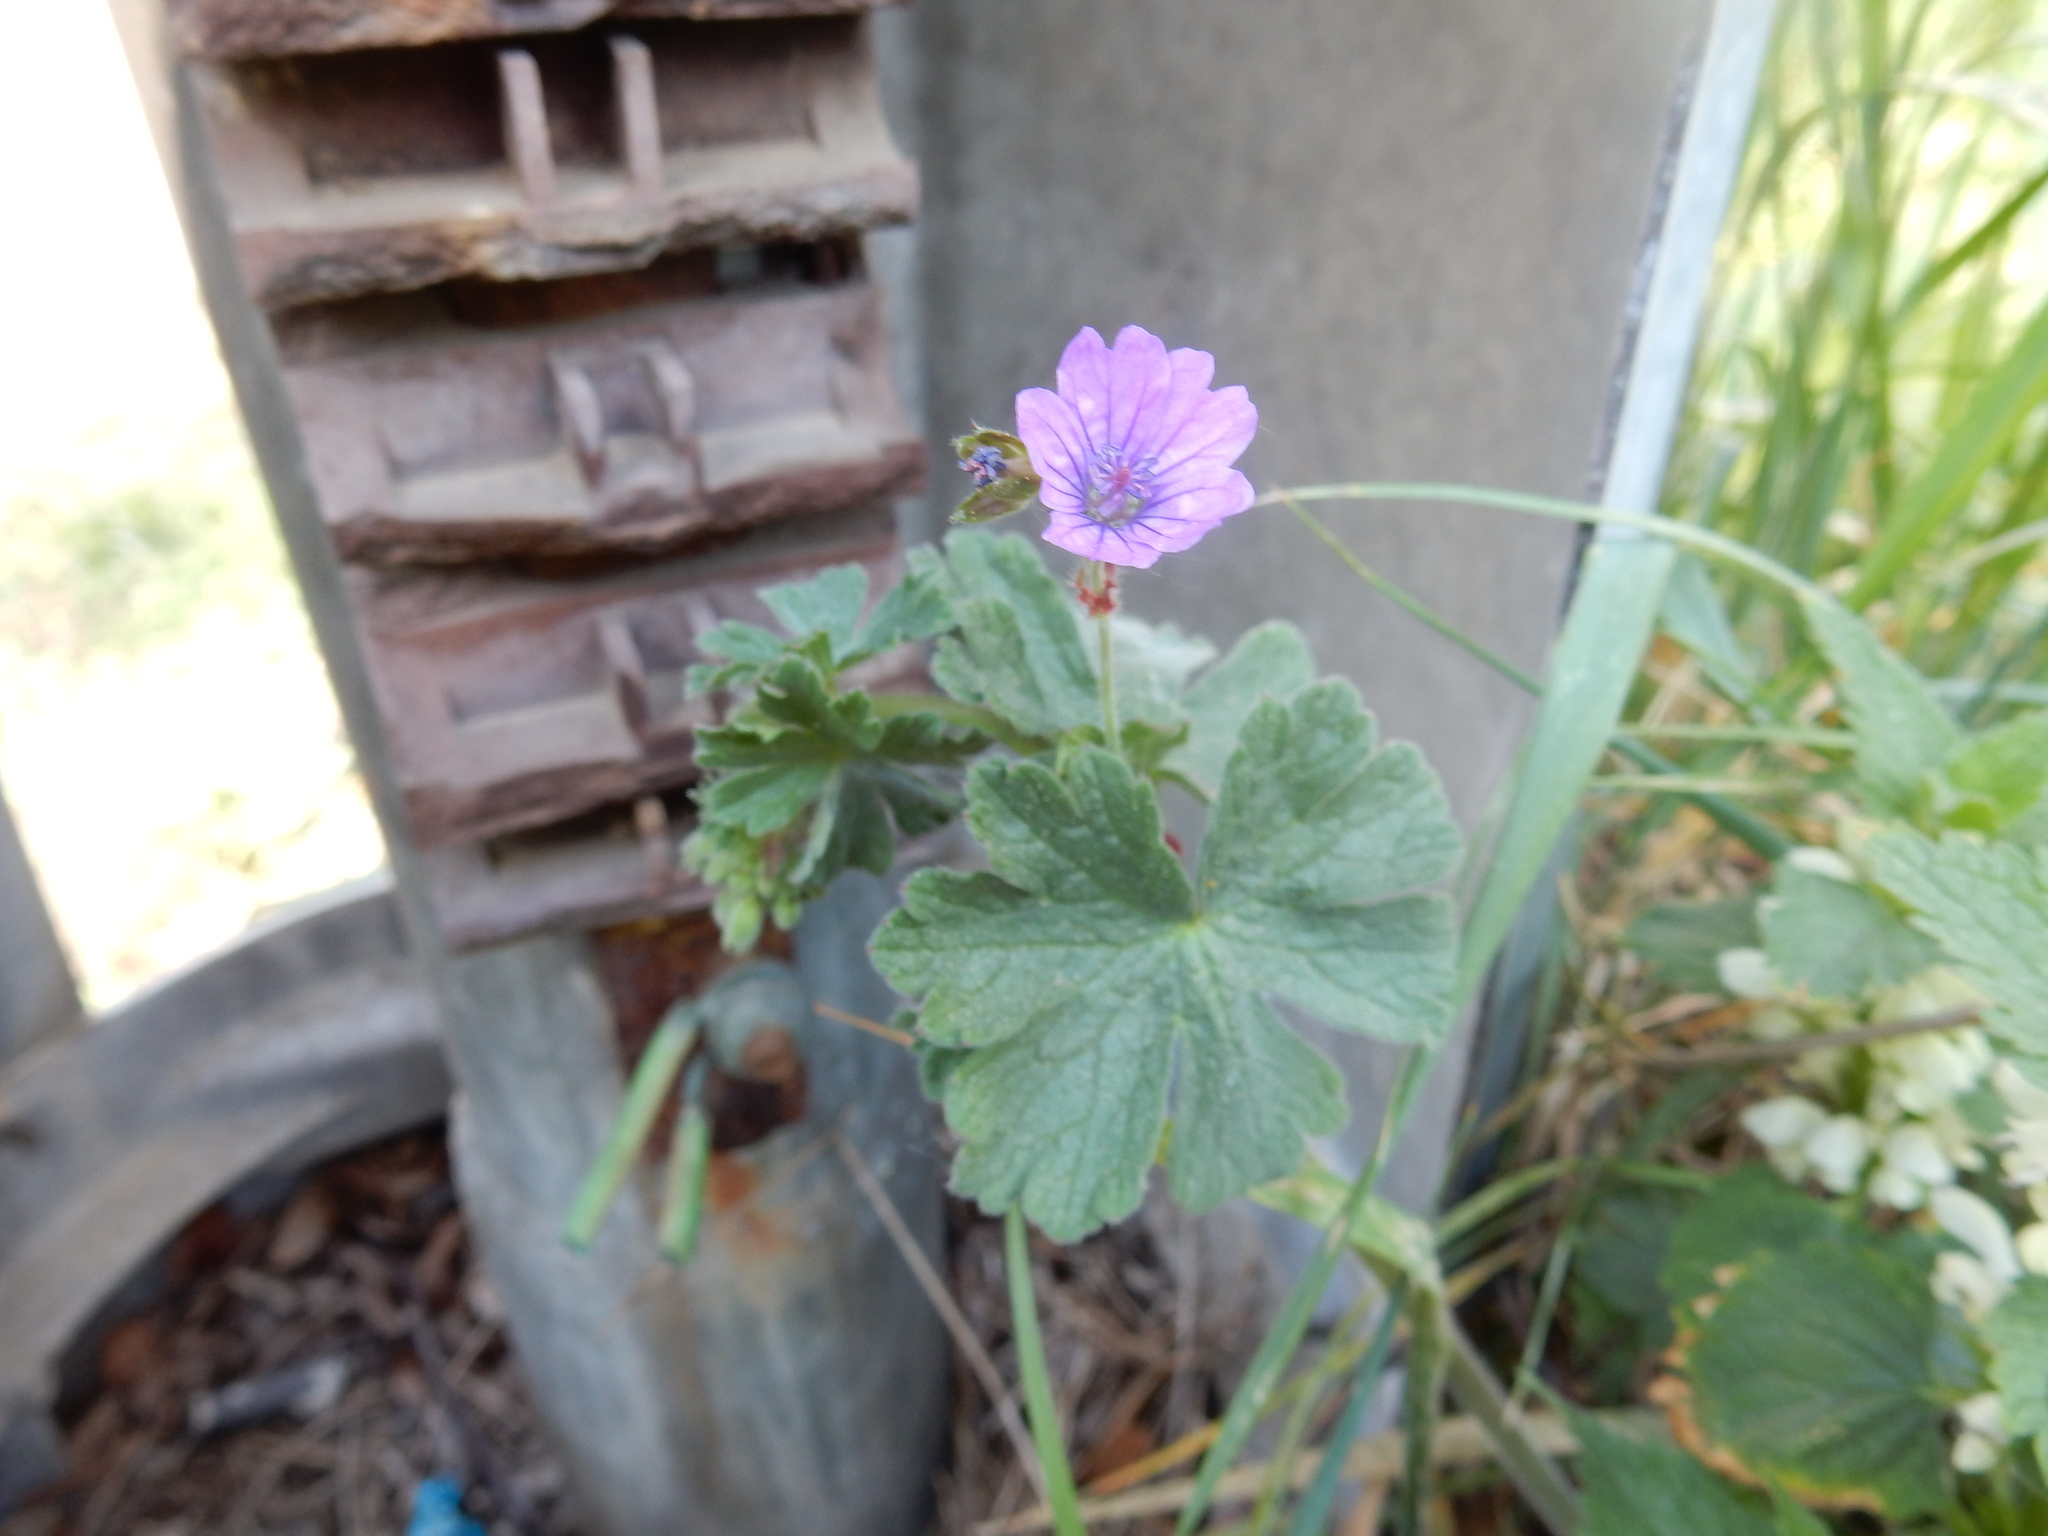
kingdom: Plantae
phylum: Tracheophyta
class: Magnoliopsida
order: Geraniales
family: Geraniaceae
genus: Geranium
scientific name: Geranium pyrenaicum
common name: Hedgerow crane's-bill
